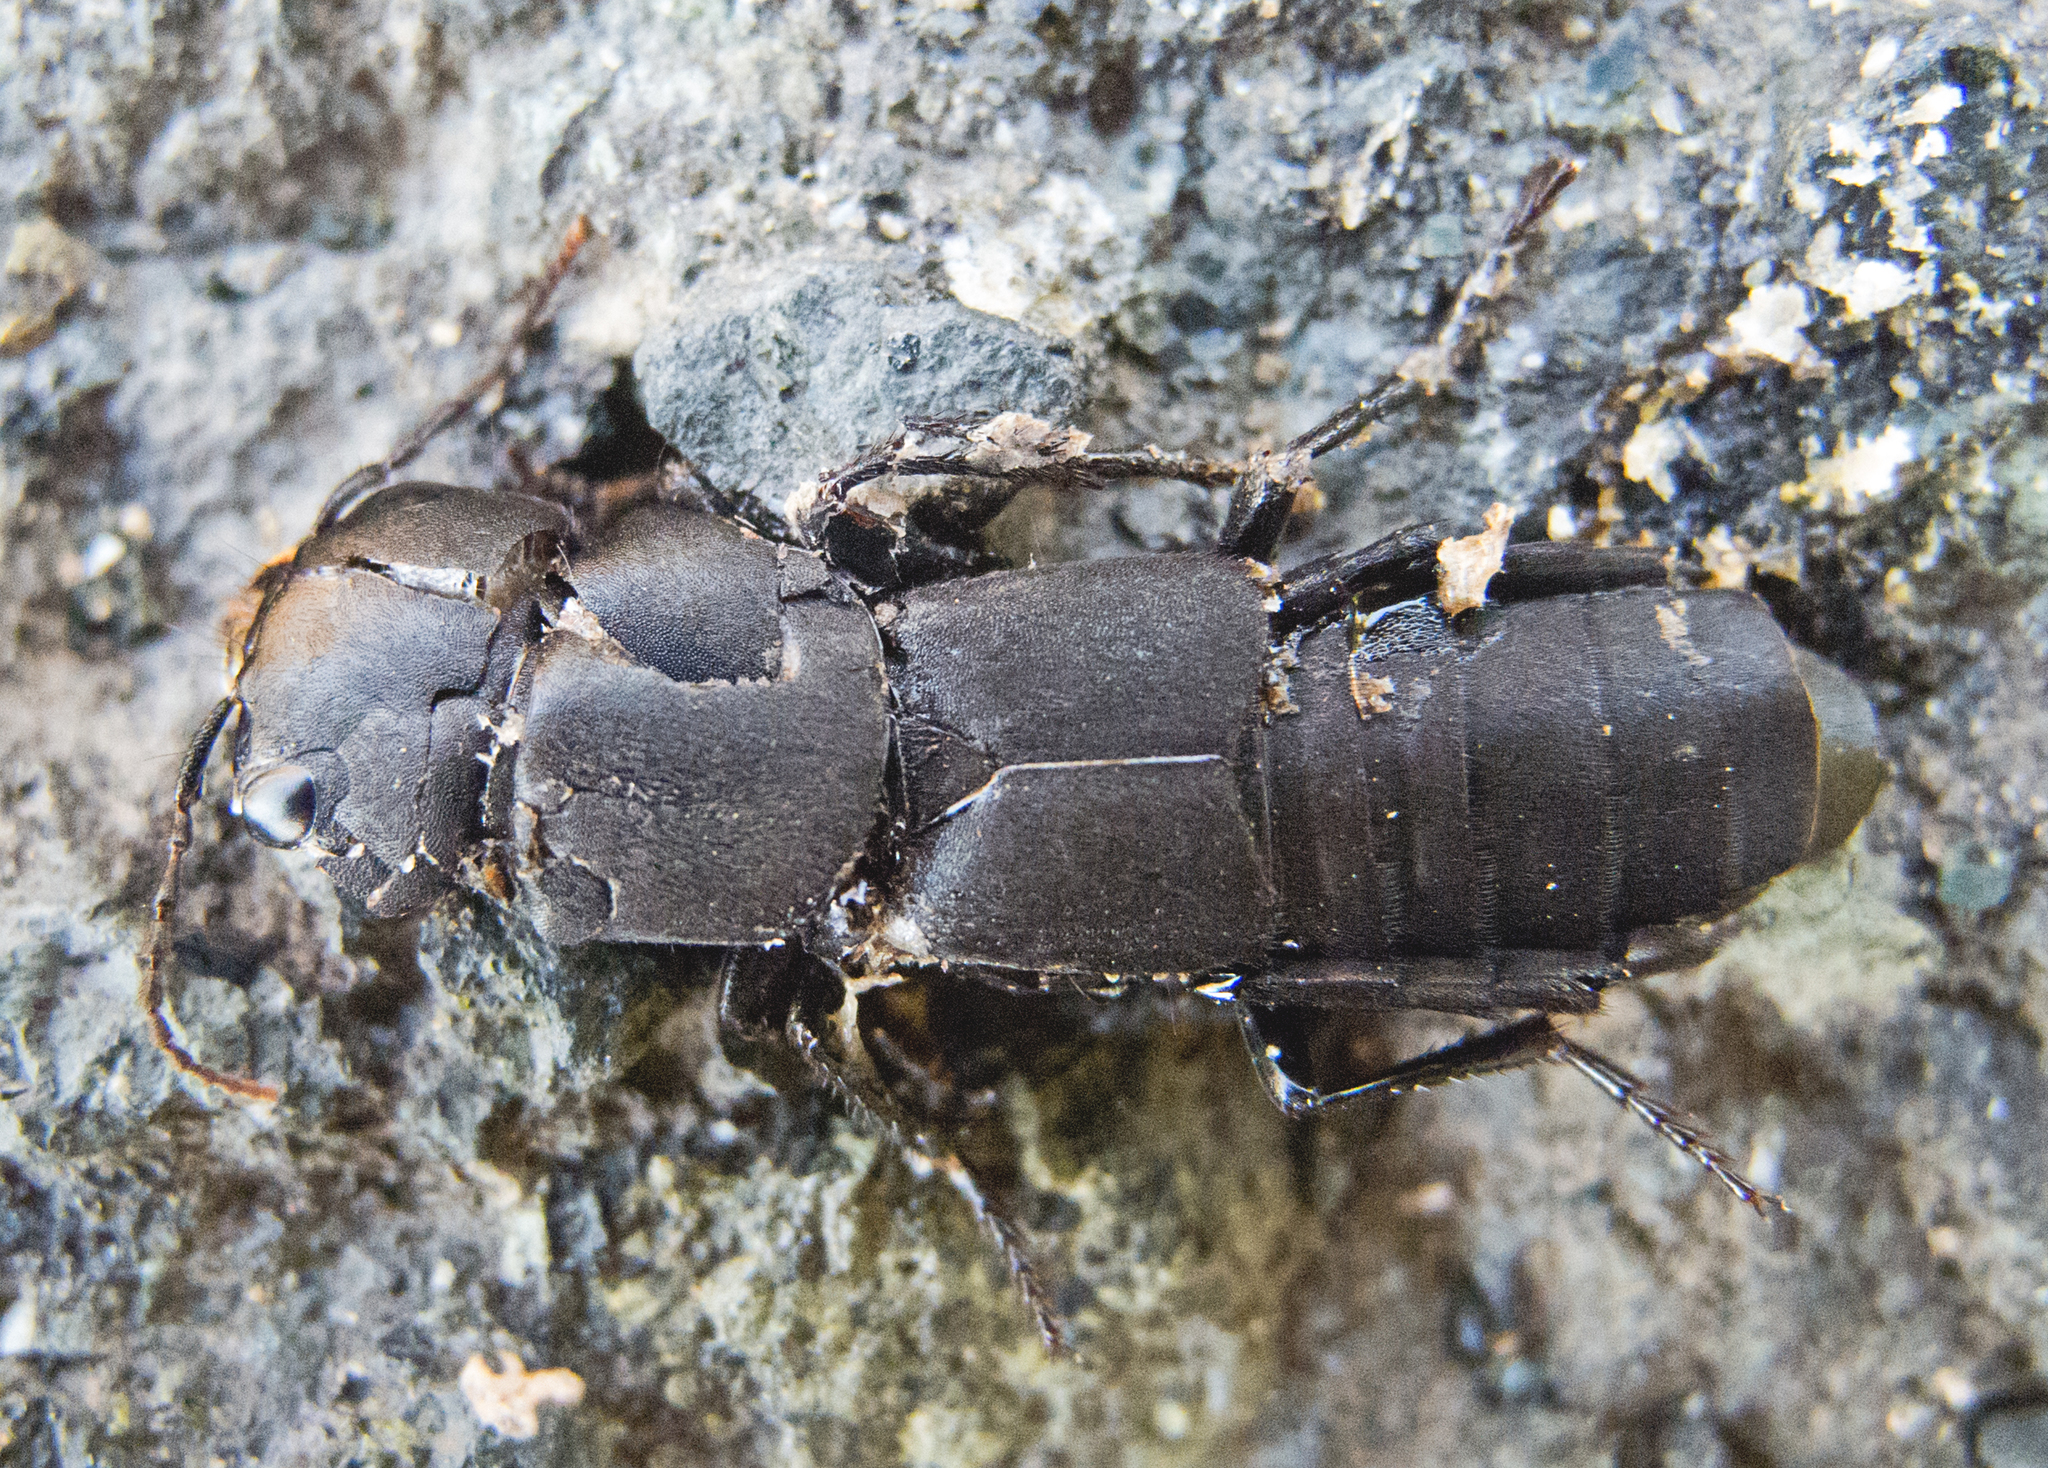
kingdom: Animalia
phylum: Arthropoda
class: Insecta
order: Coleoptera
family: Staphylinidae
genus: Ocypus
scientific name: Ocypus olens
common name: Devil's coach-horse
